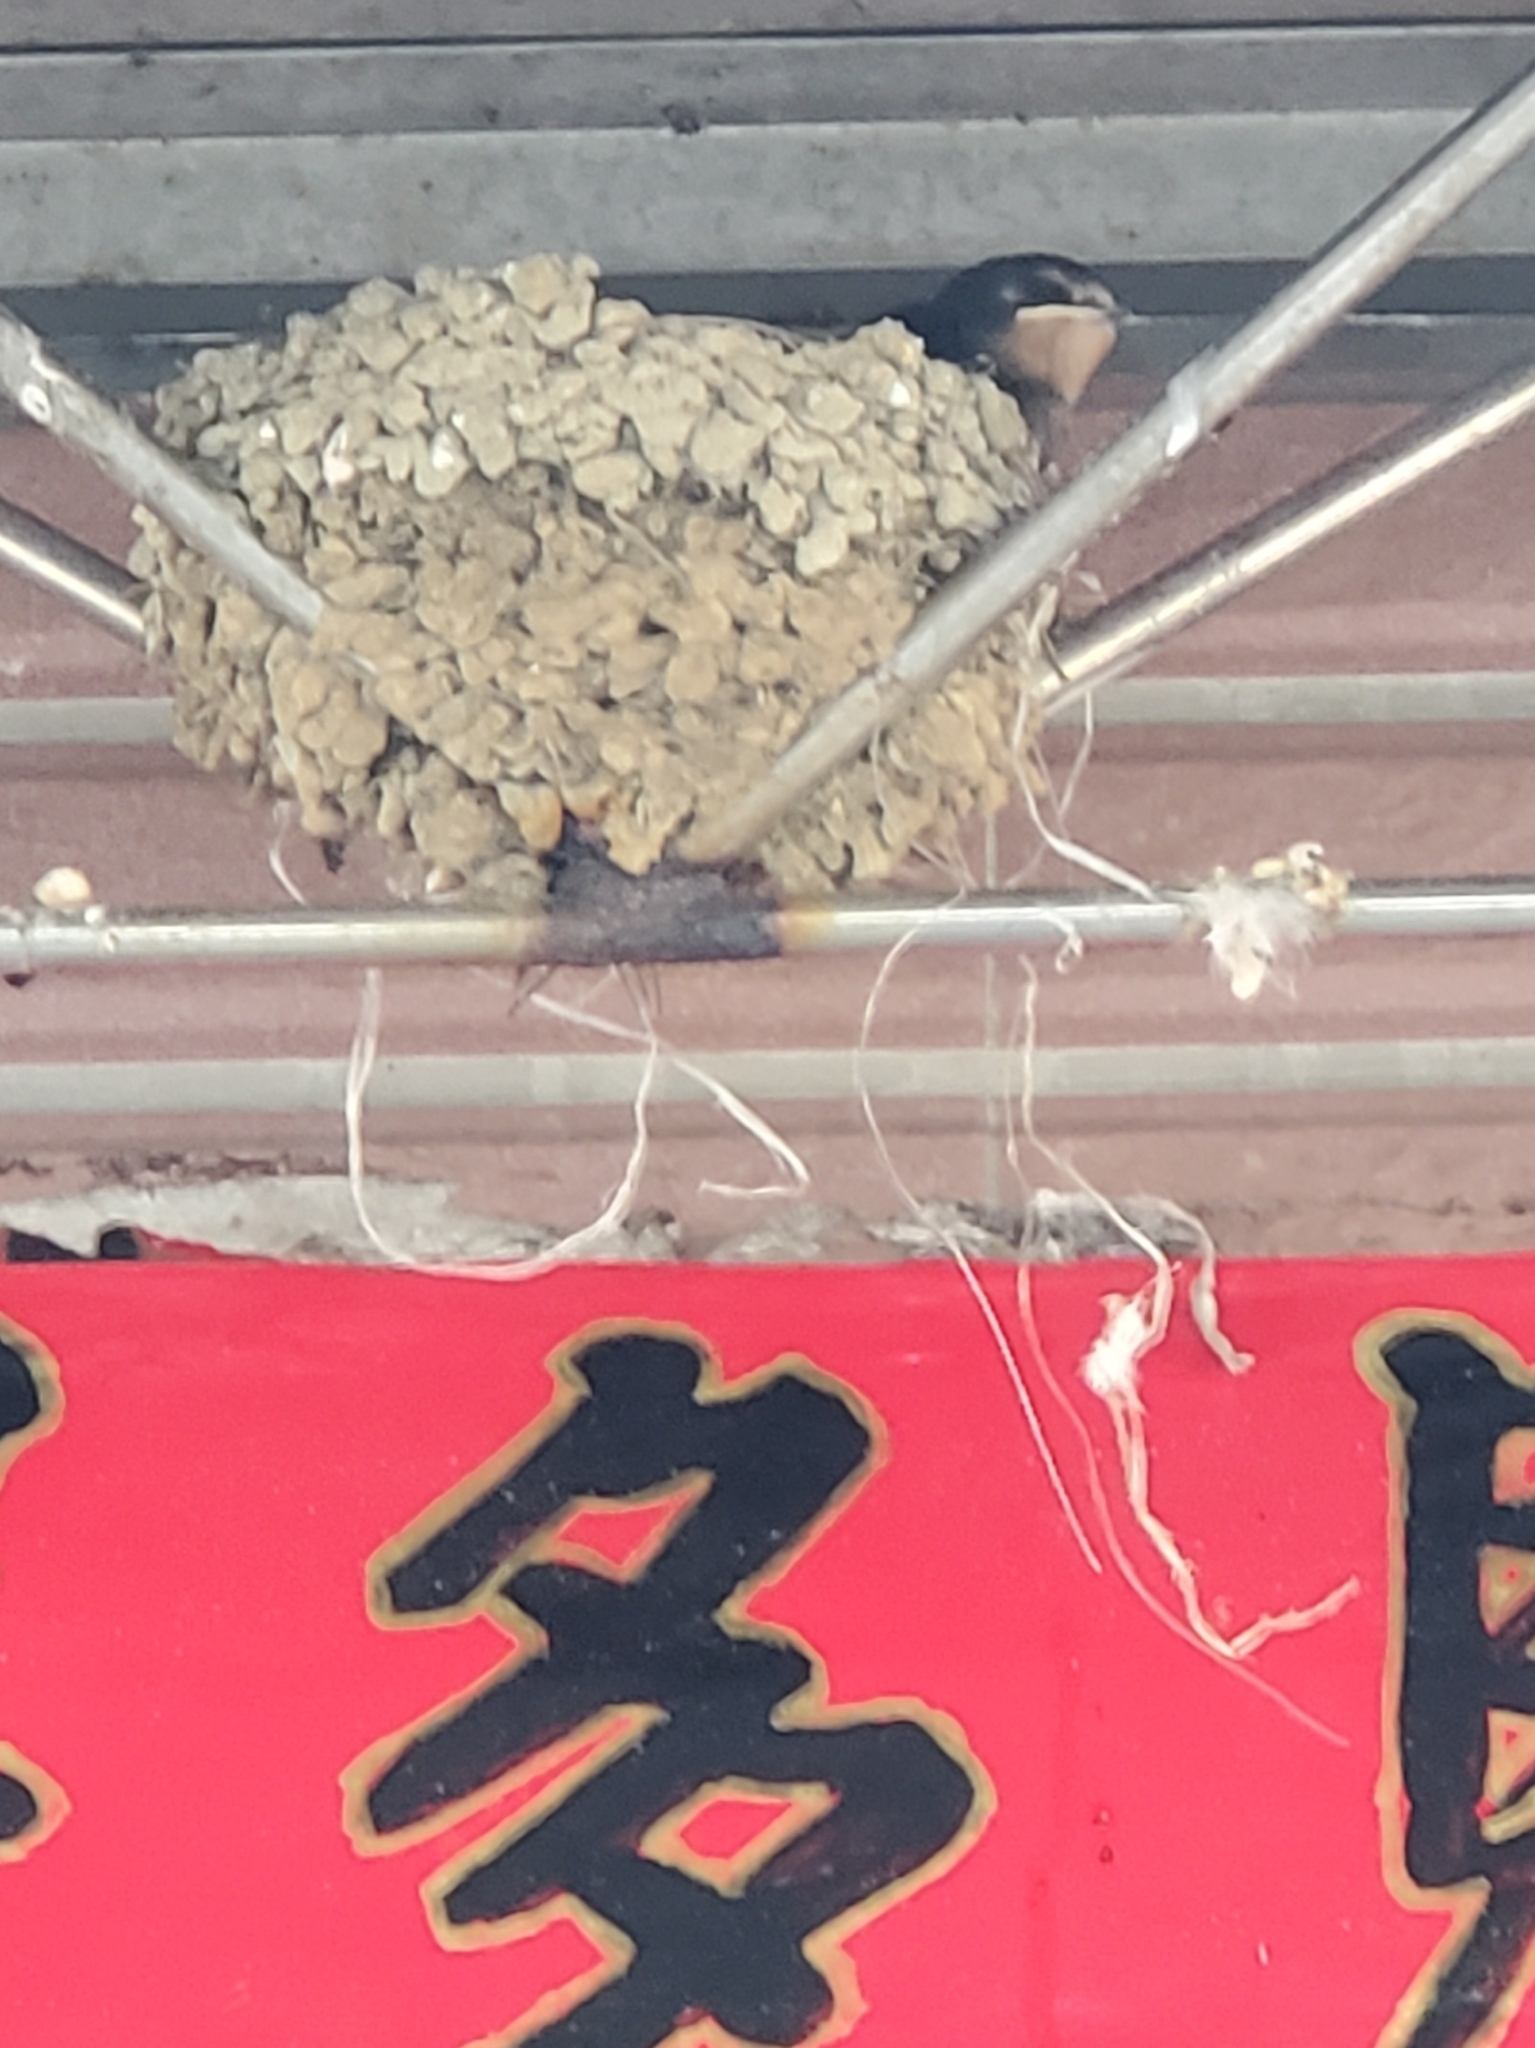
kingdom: Animalia
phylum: Chordata
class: Aves
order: Passeriformes
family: Hirundinidae
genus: Hirundo
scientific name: Hirundo rustica
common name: Barn swallow
